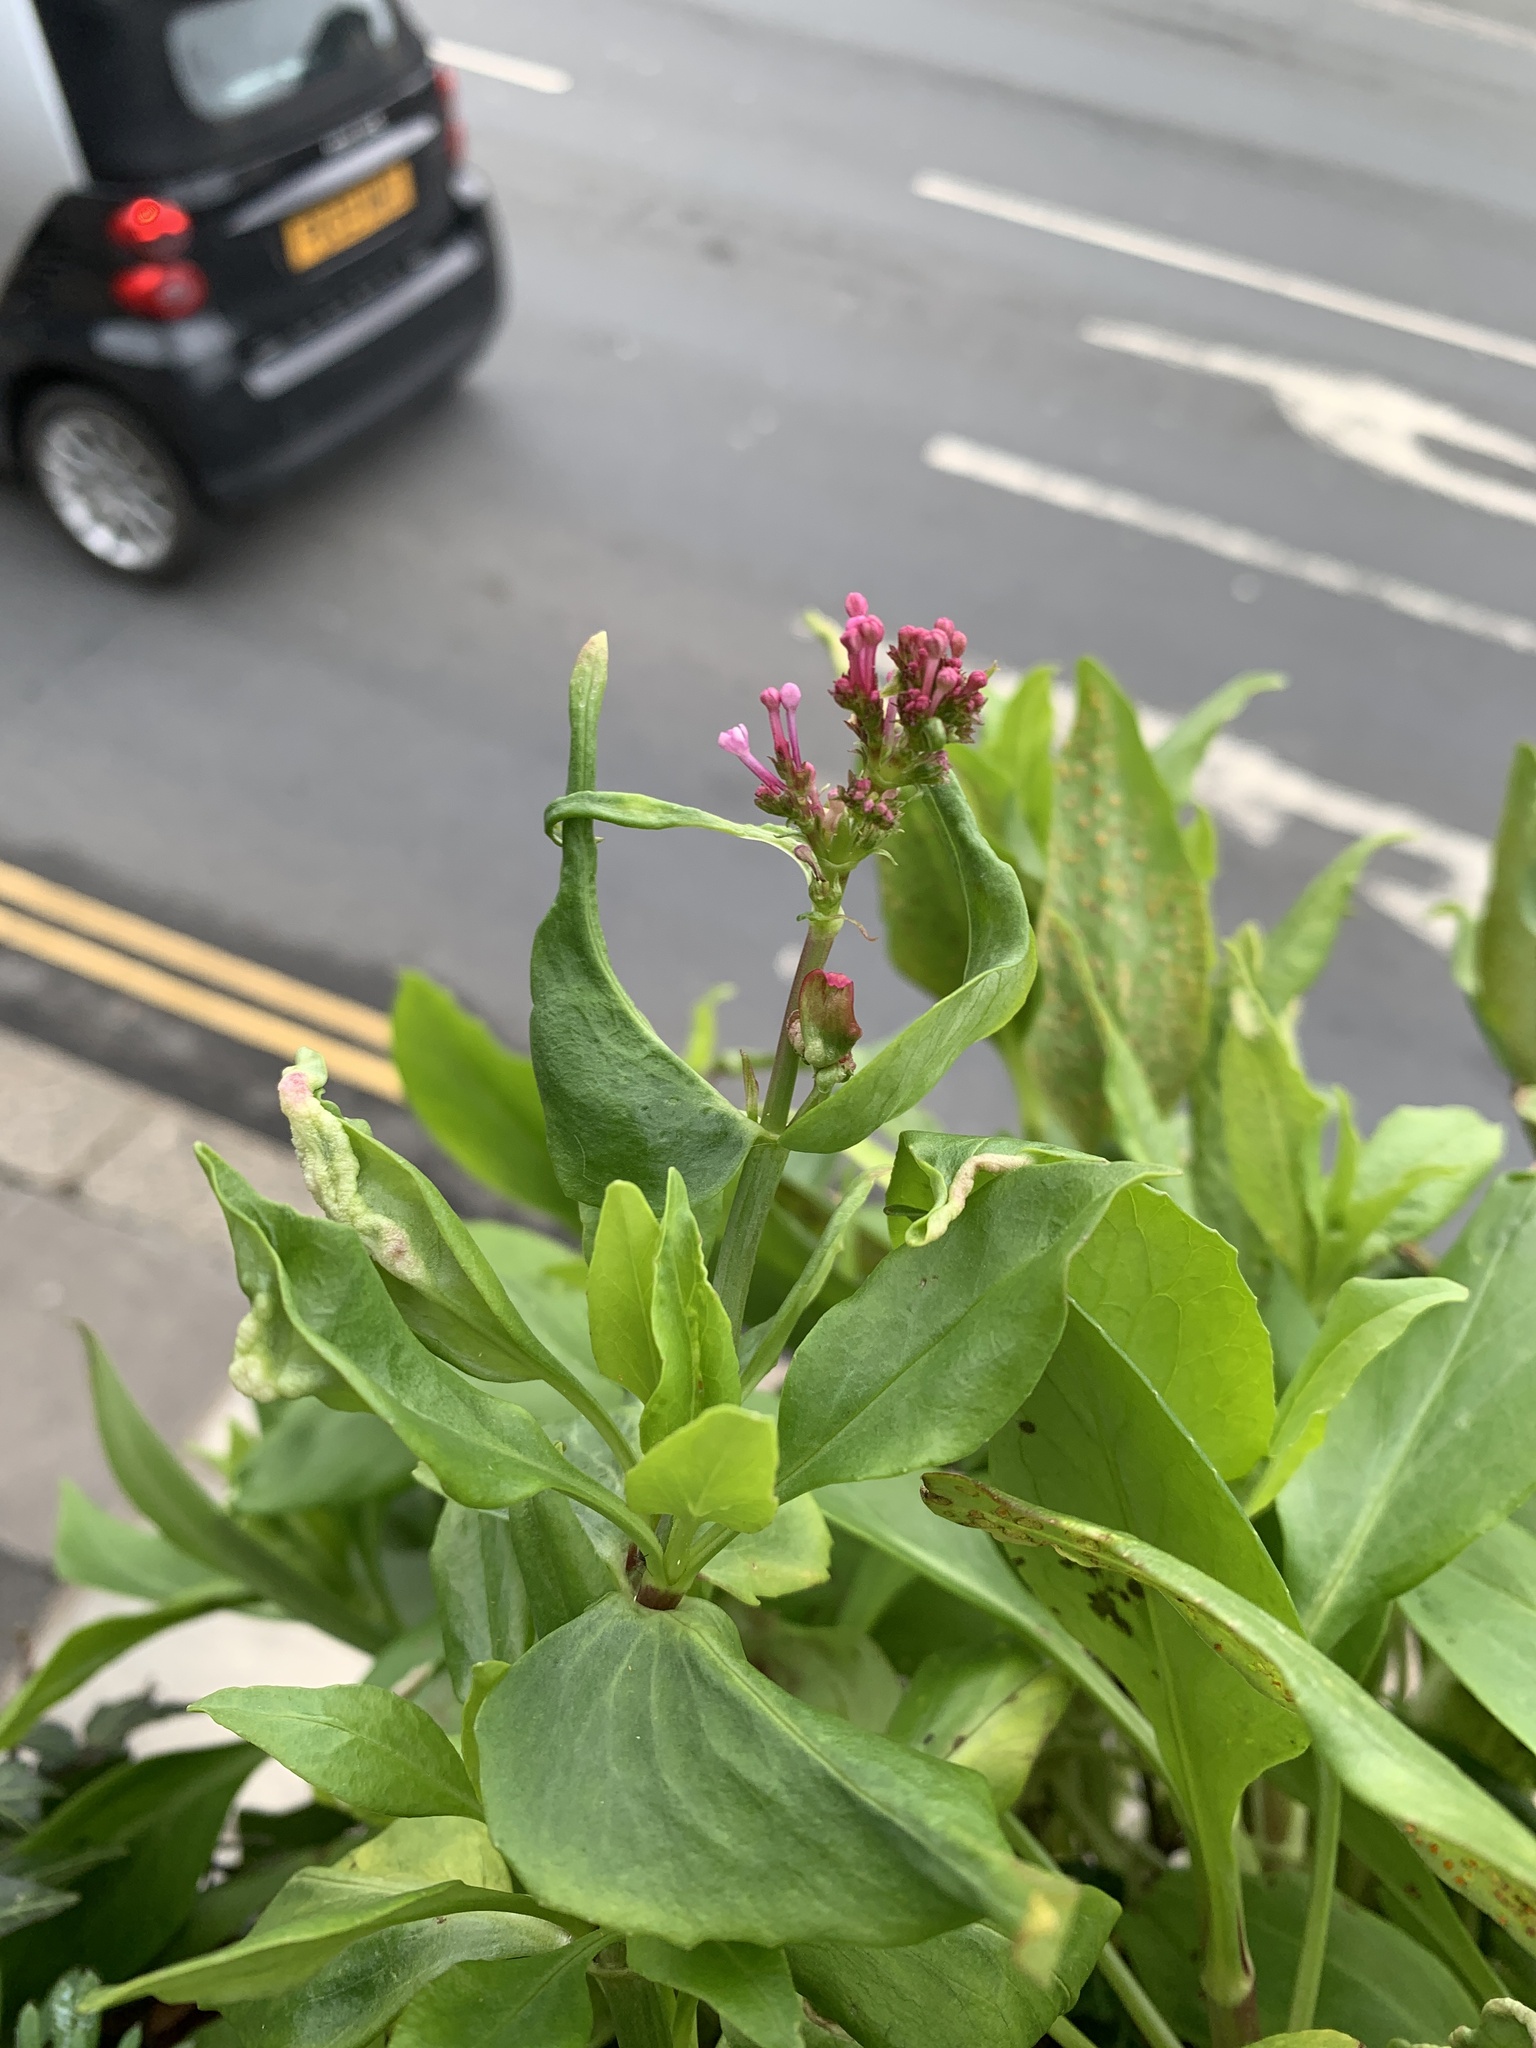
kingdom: Plantae
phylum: Tracheophyta
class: Magnoliopsida
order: Dipsacales
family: Caprifoliaceae
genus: Centranthus
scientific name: Centranthus ruber
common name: Red valerian
